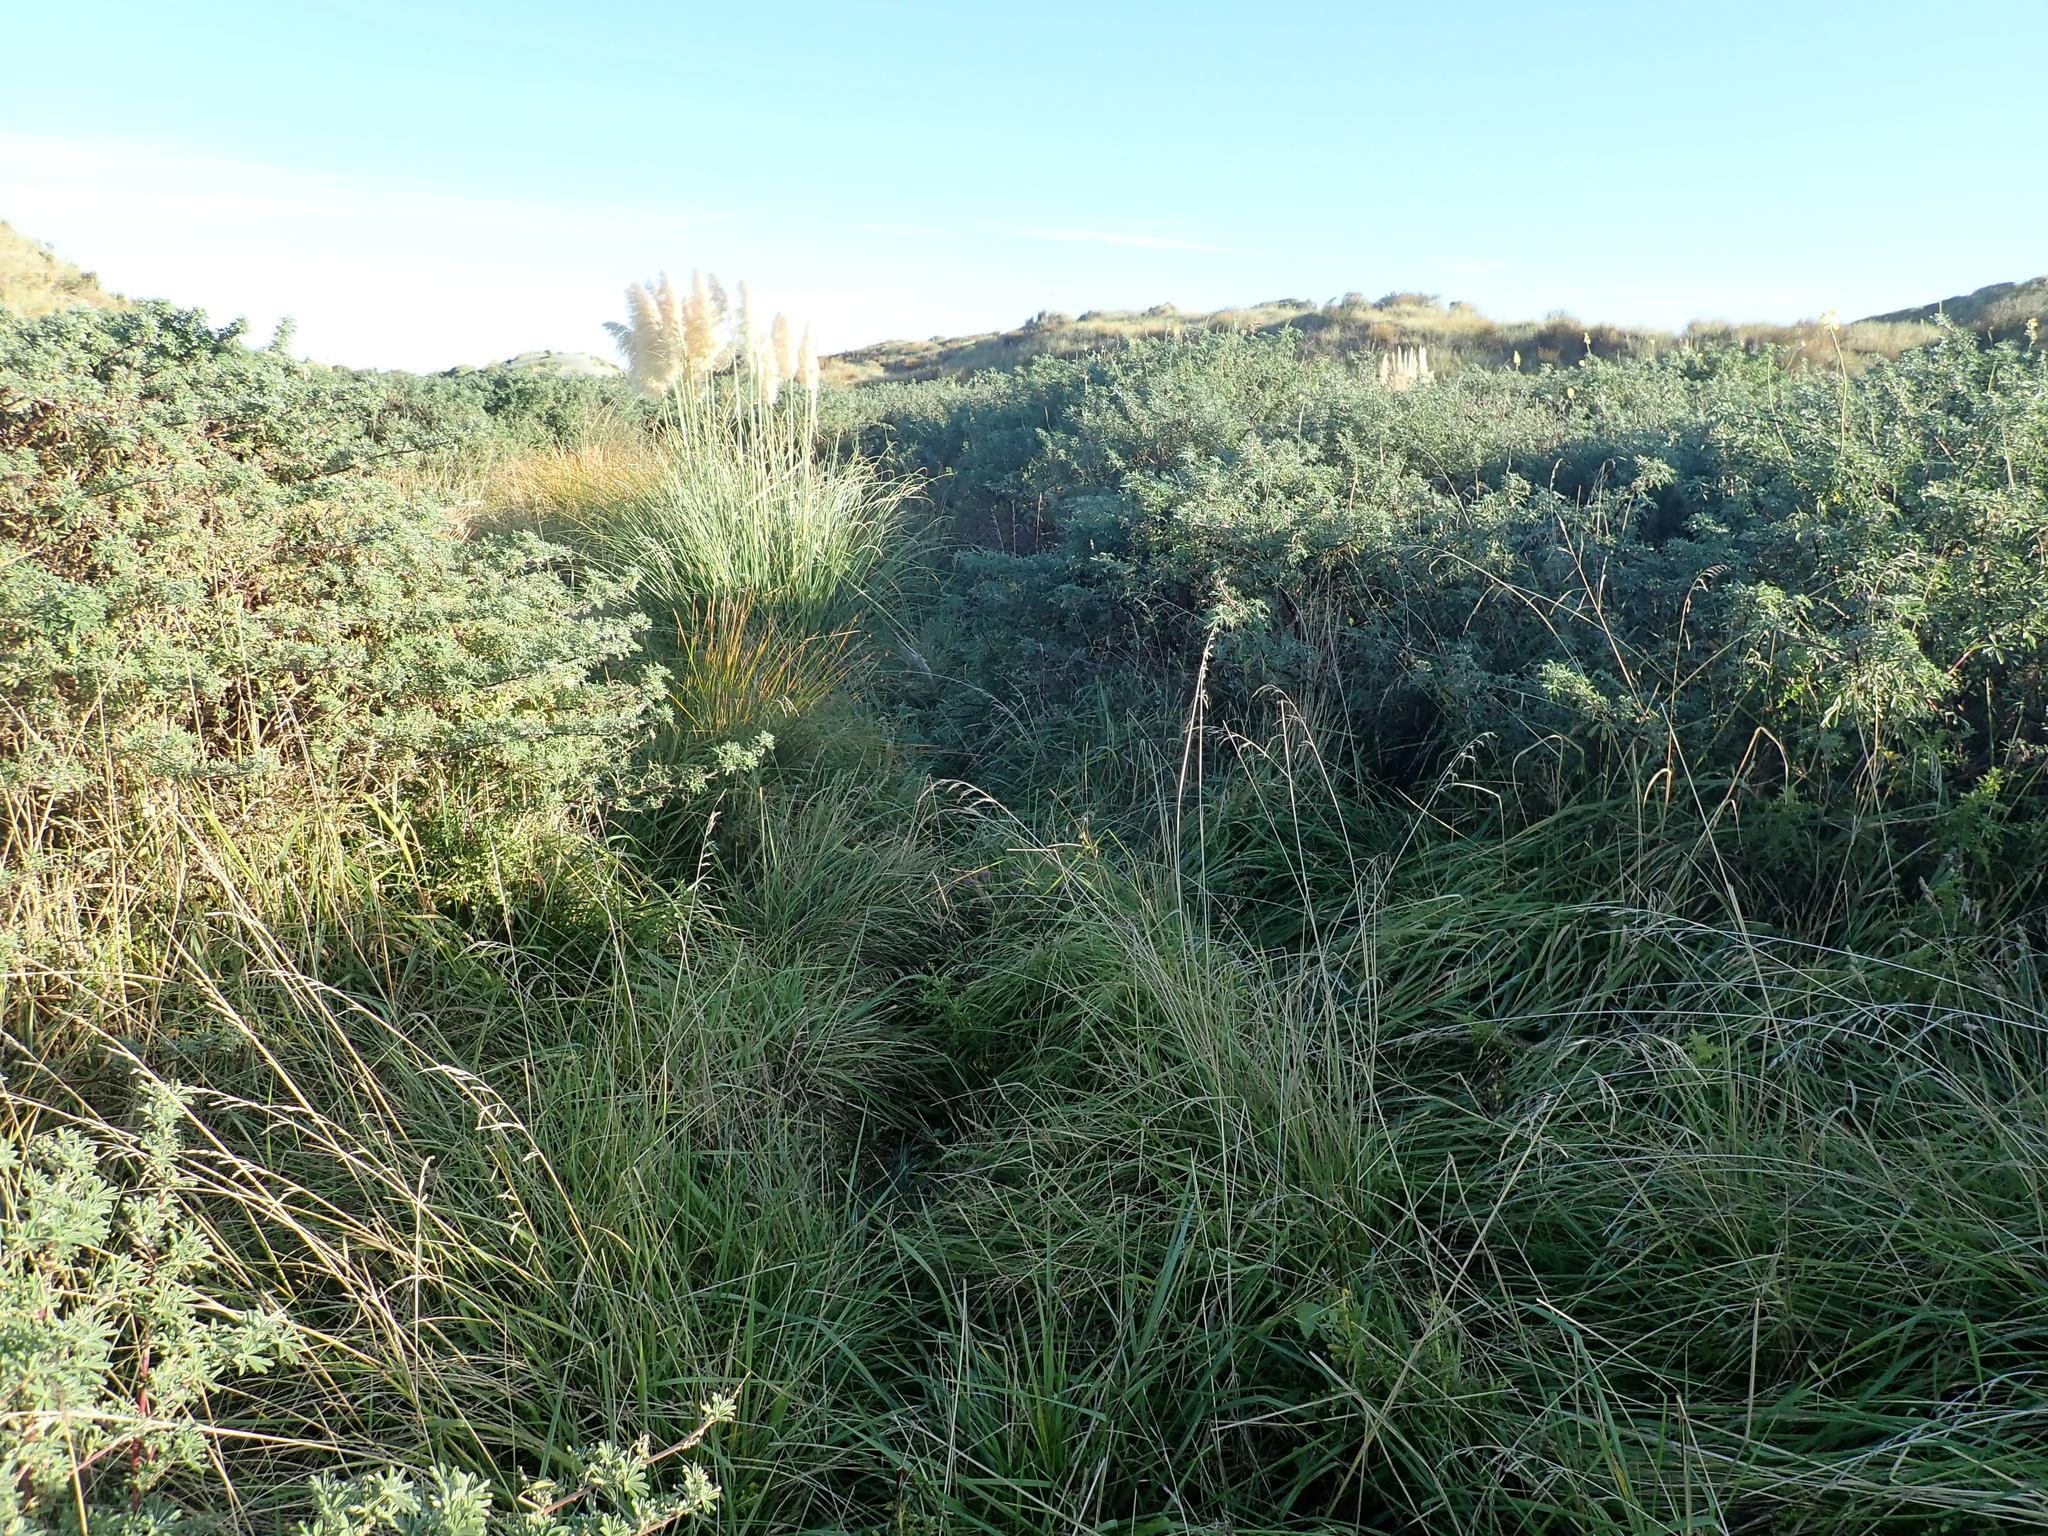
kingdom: Plantae
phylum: Tracheophyta
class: Magnoliopsida
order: Fabales
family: Fabaceae
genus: Lupinus
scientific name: Lupinus arboreus
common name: Yellow bush lupine
